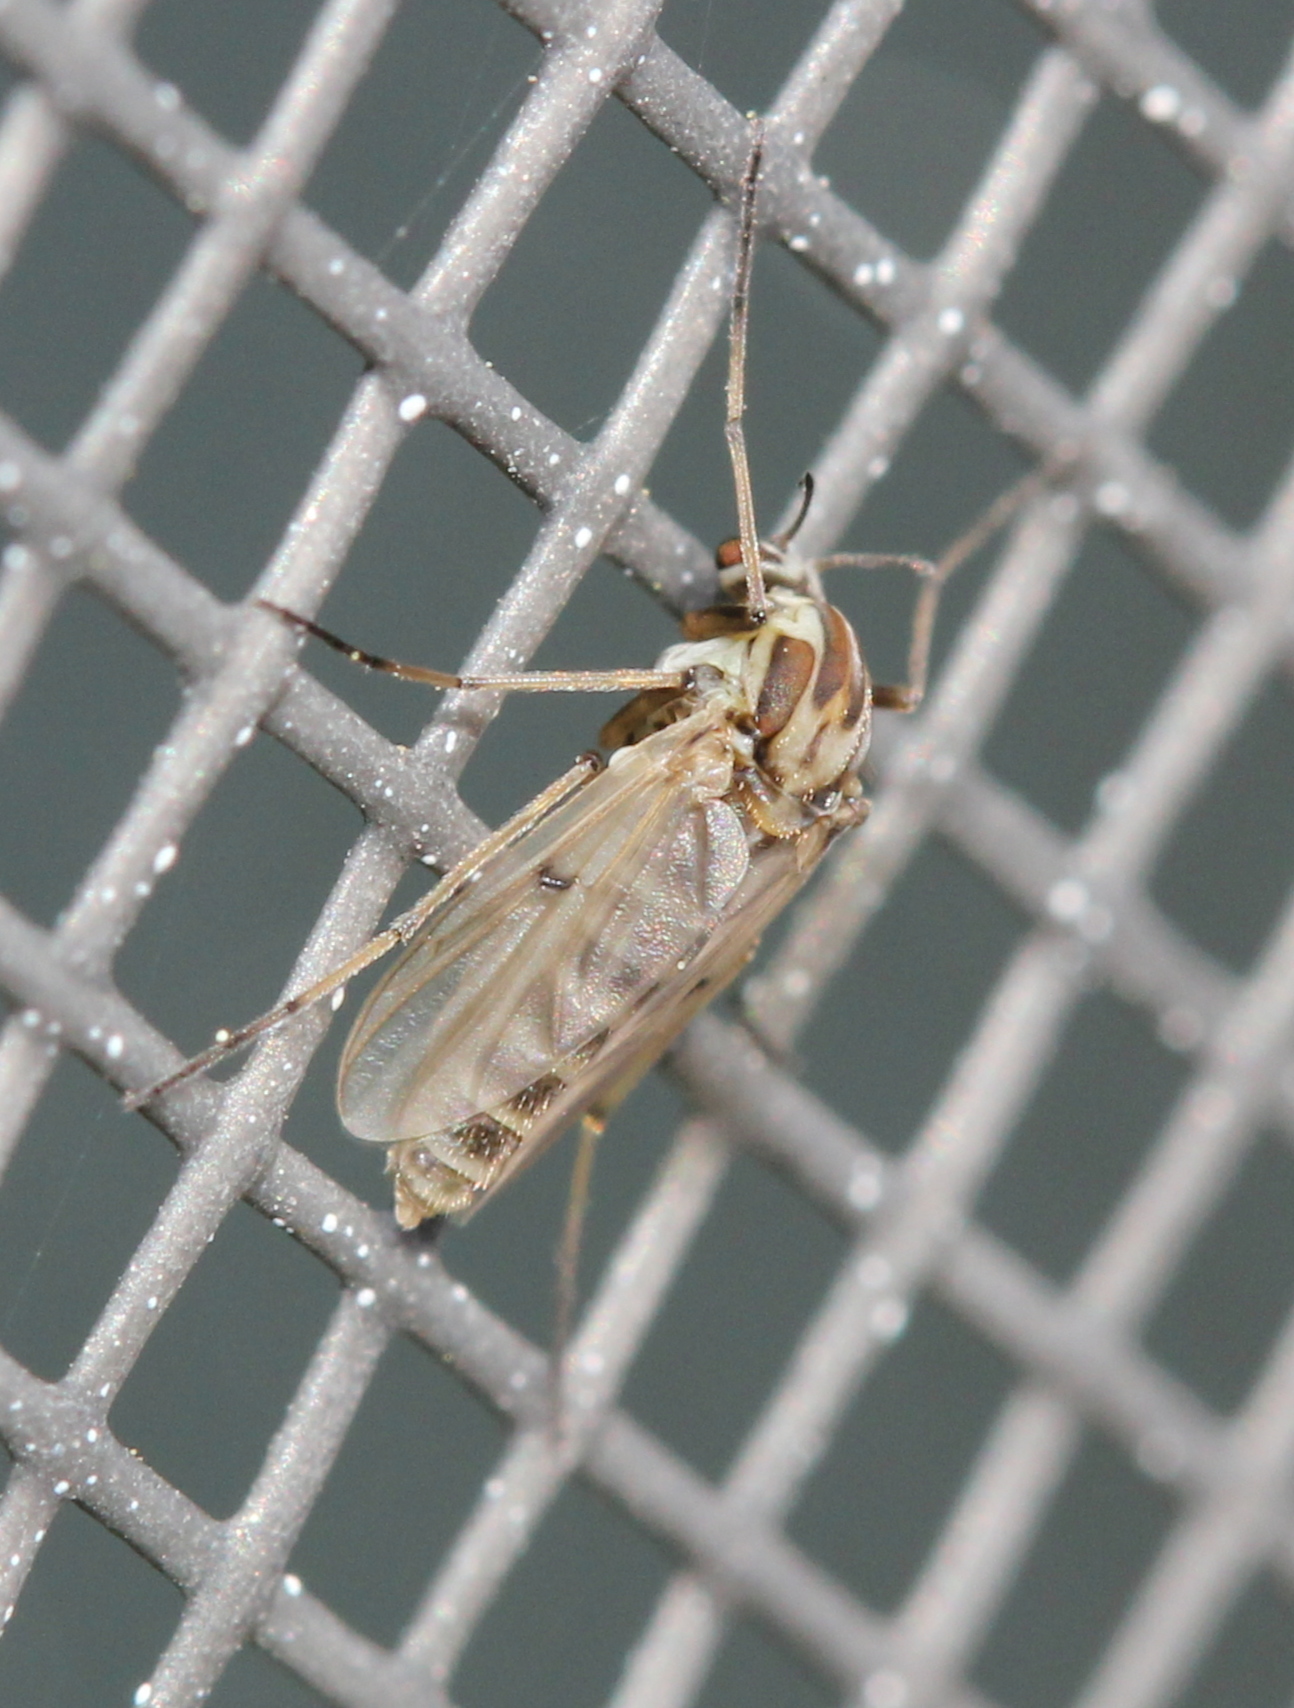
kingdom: Animalia
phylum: Arthropoda
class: Insecta
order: Diptera
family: Chironomidae
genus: Procladius
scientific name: Procladius bellus
